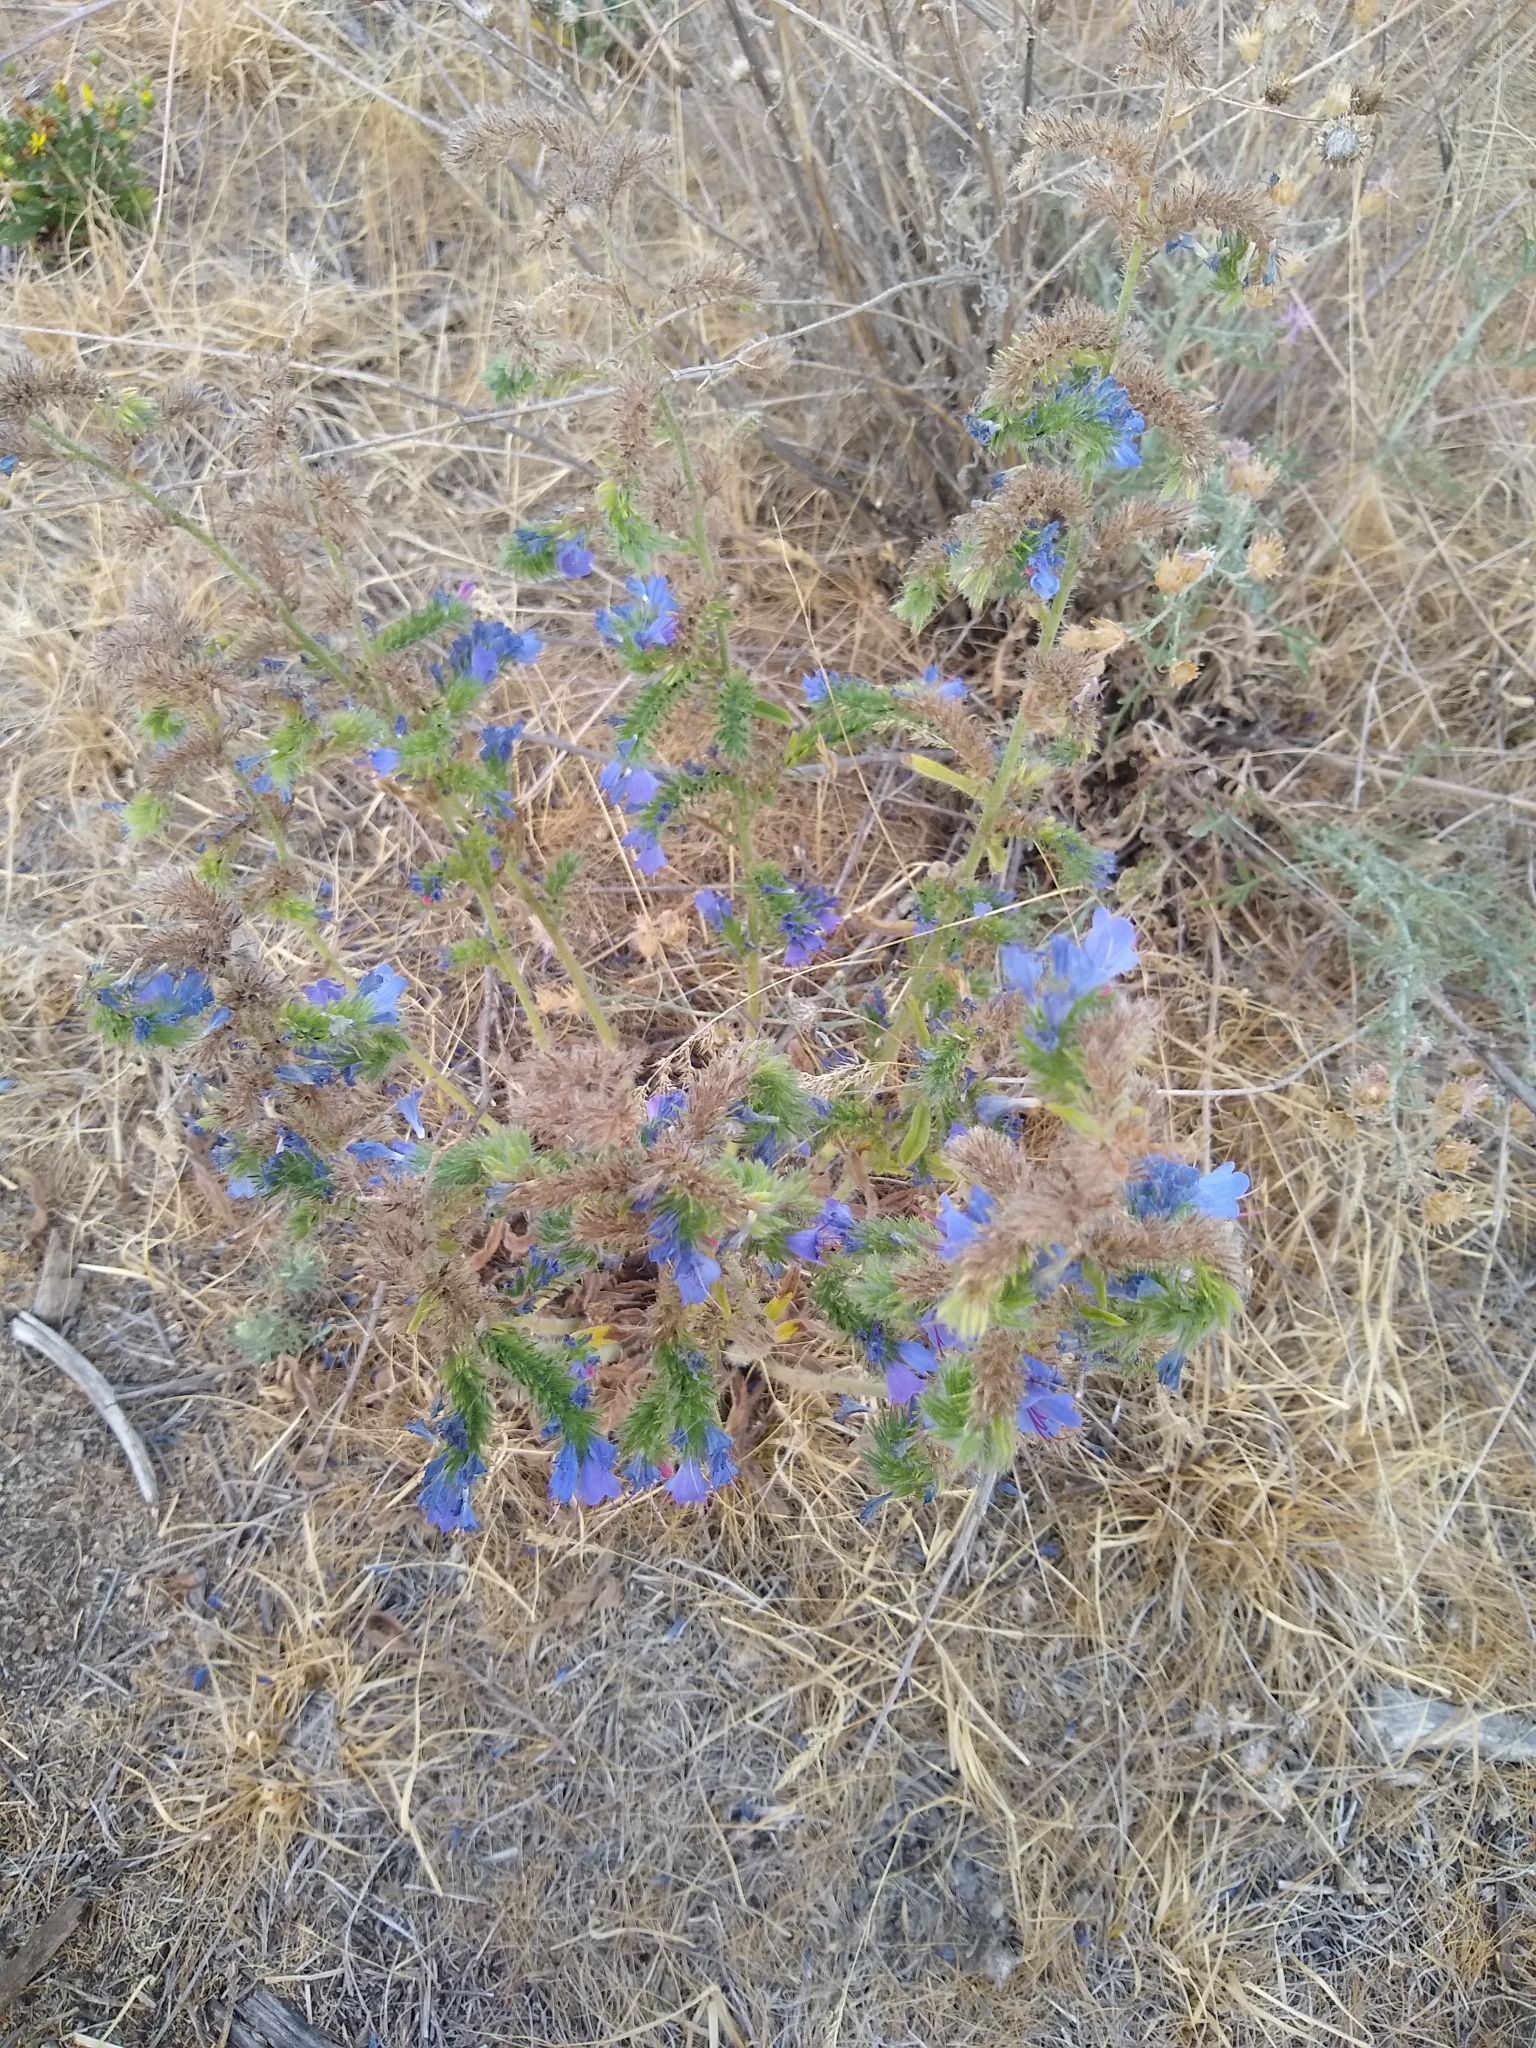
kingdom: Plantae
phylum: Tracheophyta
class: Magnoliopsida
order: Boraginales
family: Boraginaceae
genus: Echium
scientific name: Echium vulgare
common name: Common viper's bugloss
